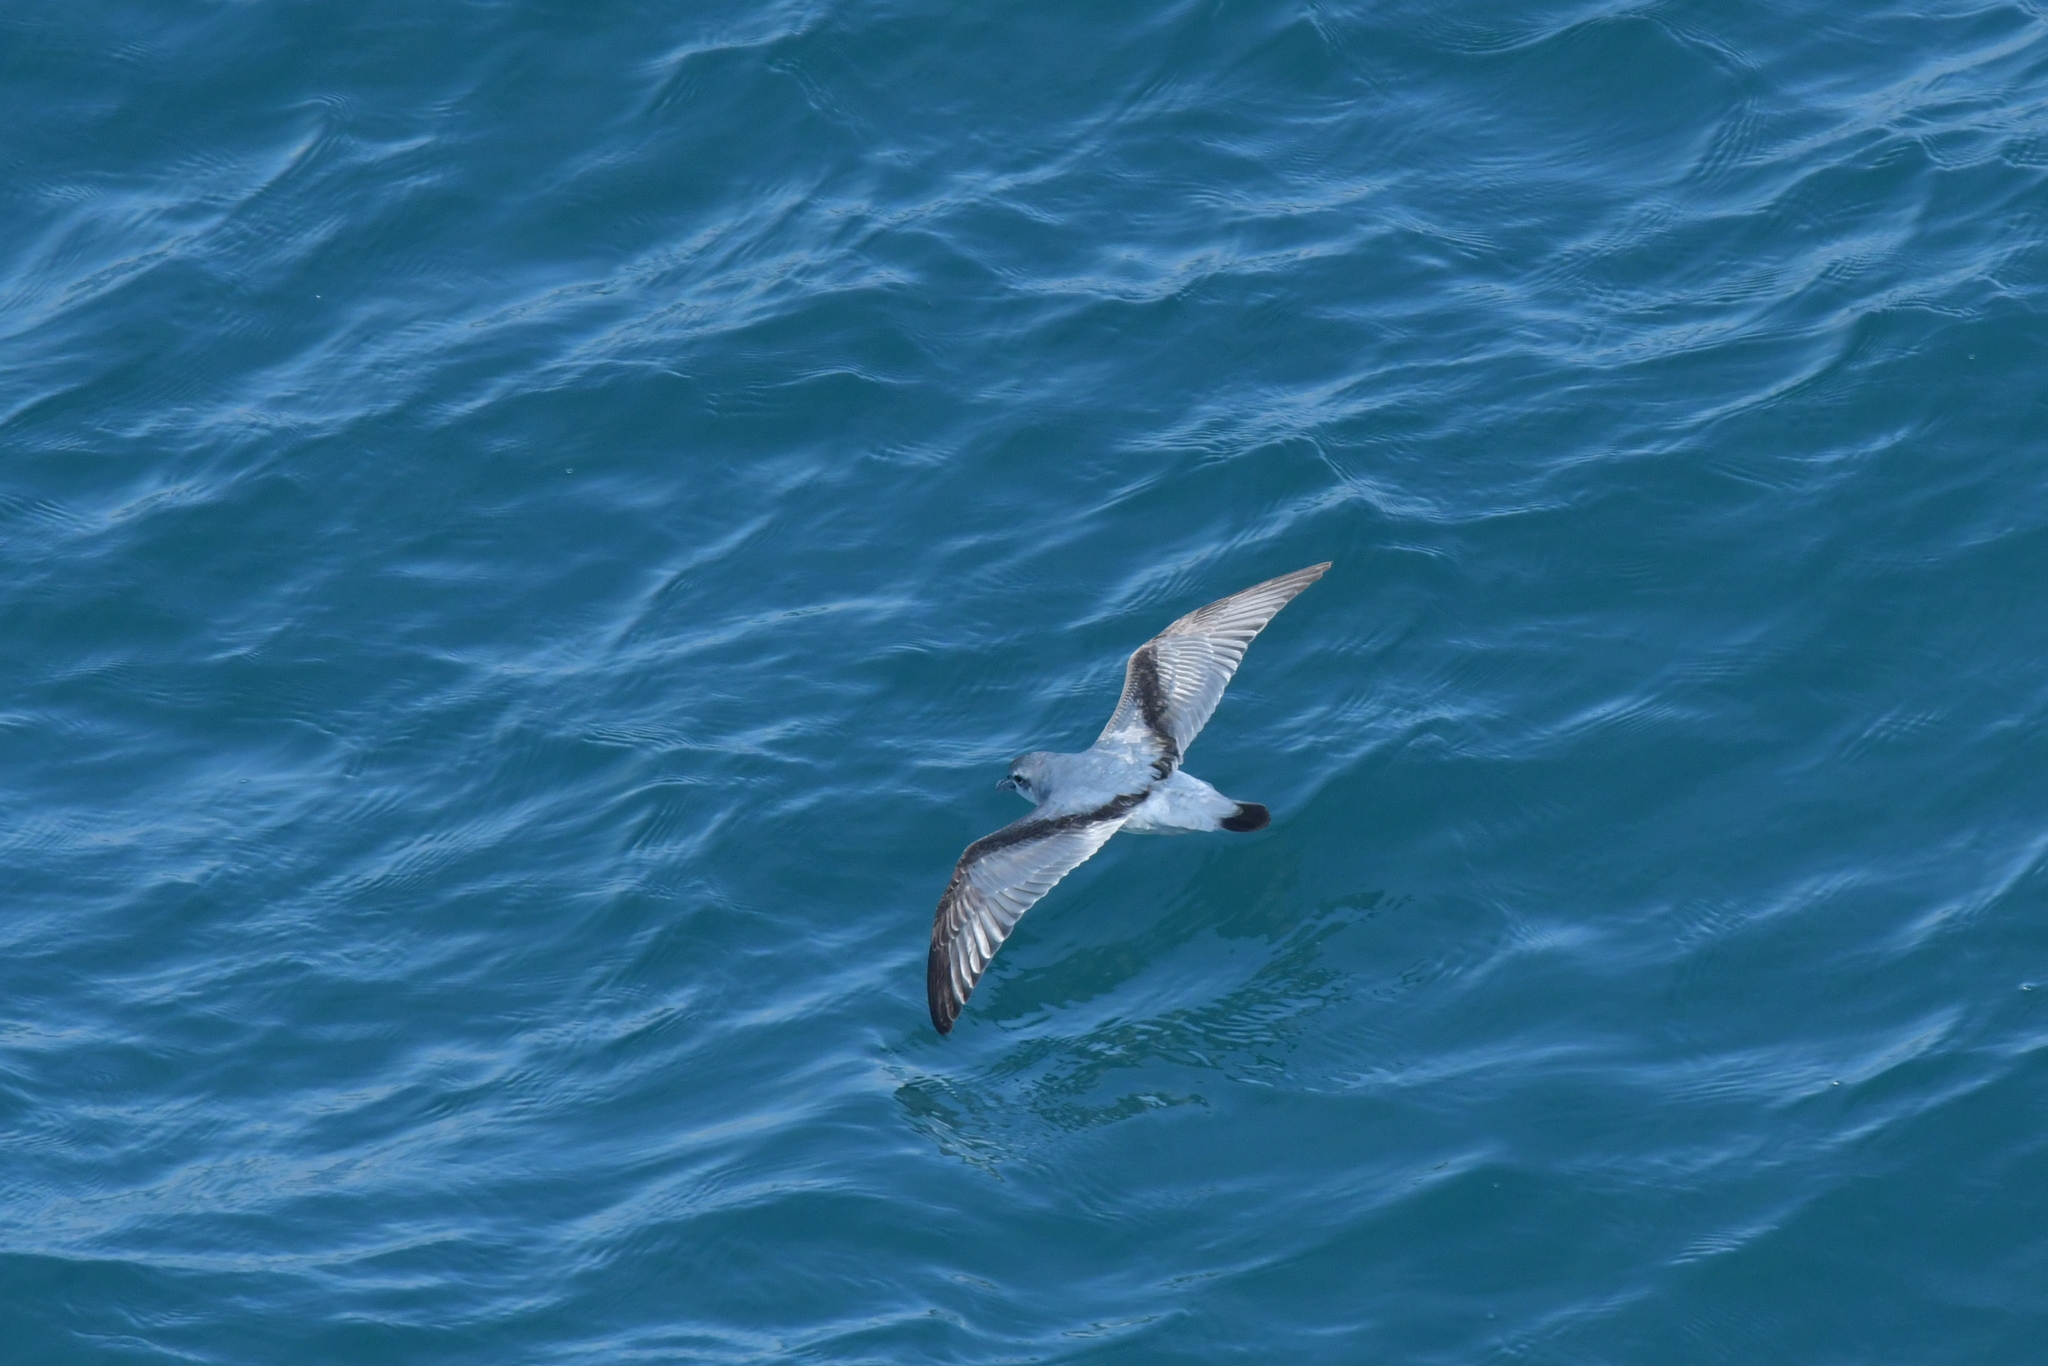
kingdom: Animalia
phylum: Chordata
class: Aves
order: Procellariiformes
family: Procellariidae
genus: Pachyptila
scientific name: Pachyptila turtur
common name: Fairy prion
